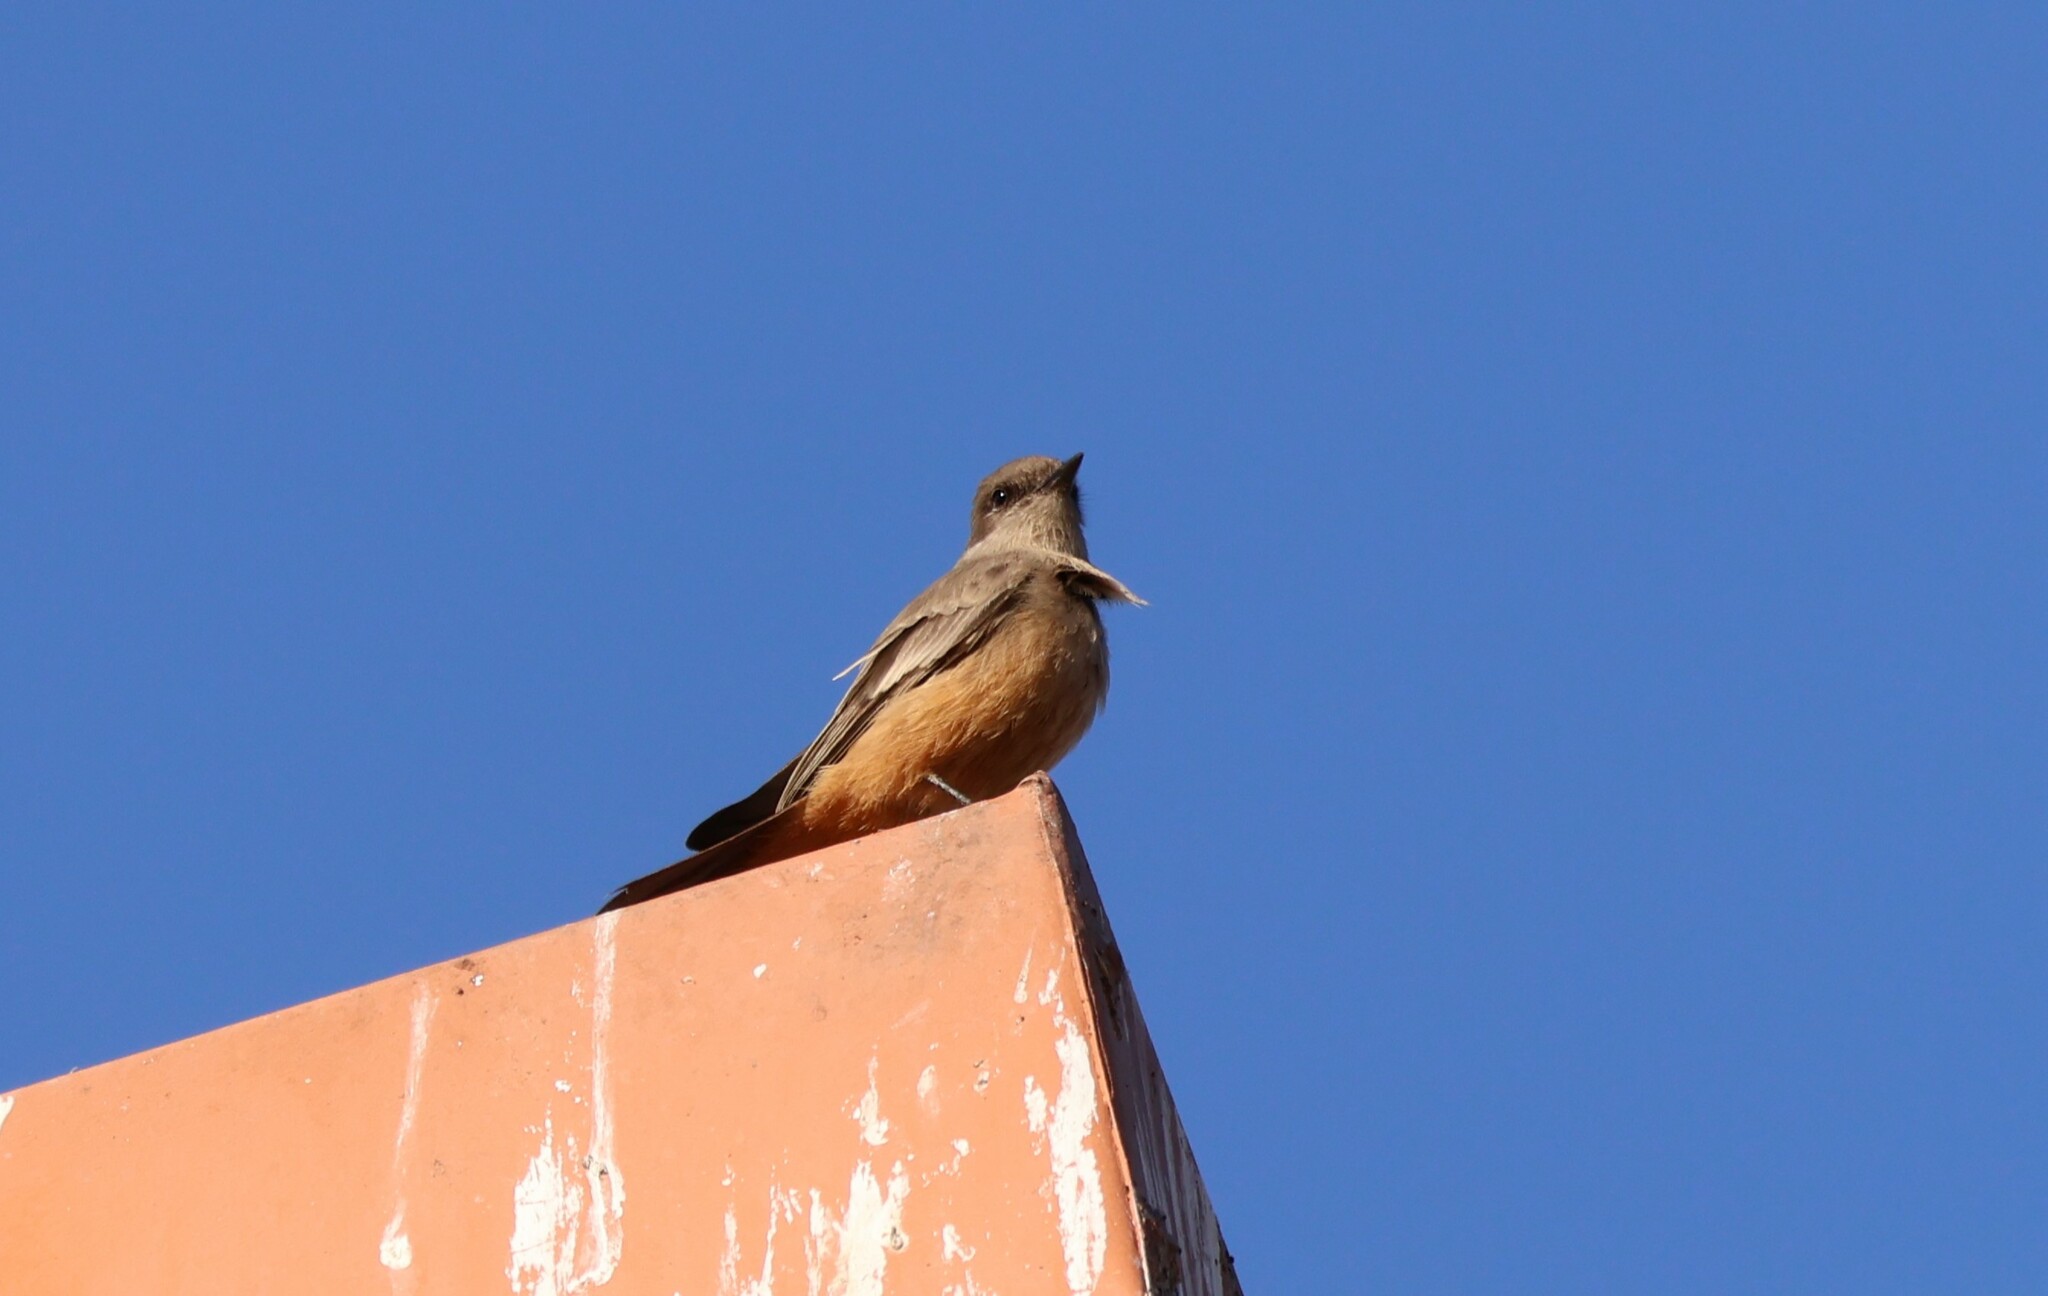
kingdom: Animalia
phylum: Chordata
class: Aves
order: Passeriformes
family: Tyrannidae
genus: Sayornis
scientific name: Sayornis saya
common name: Say's phoebe
